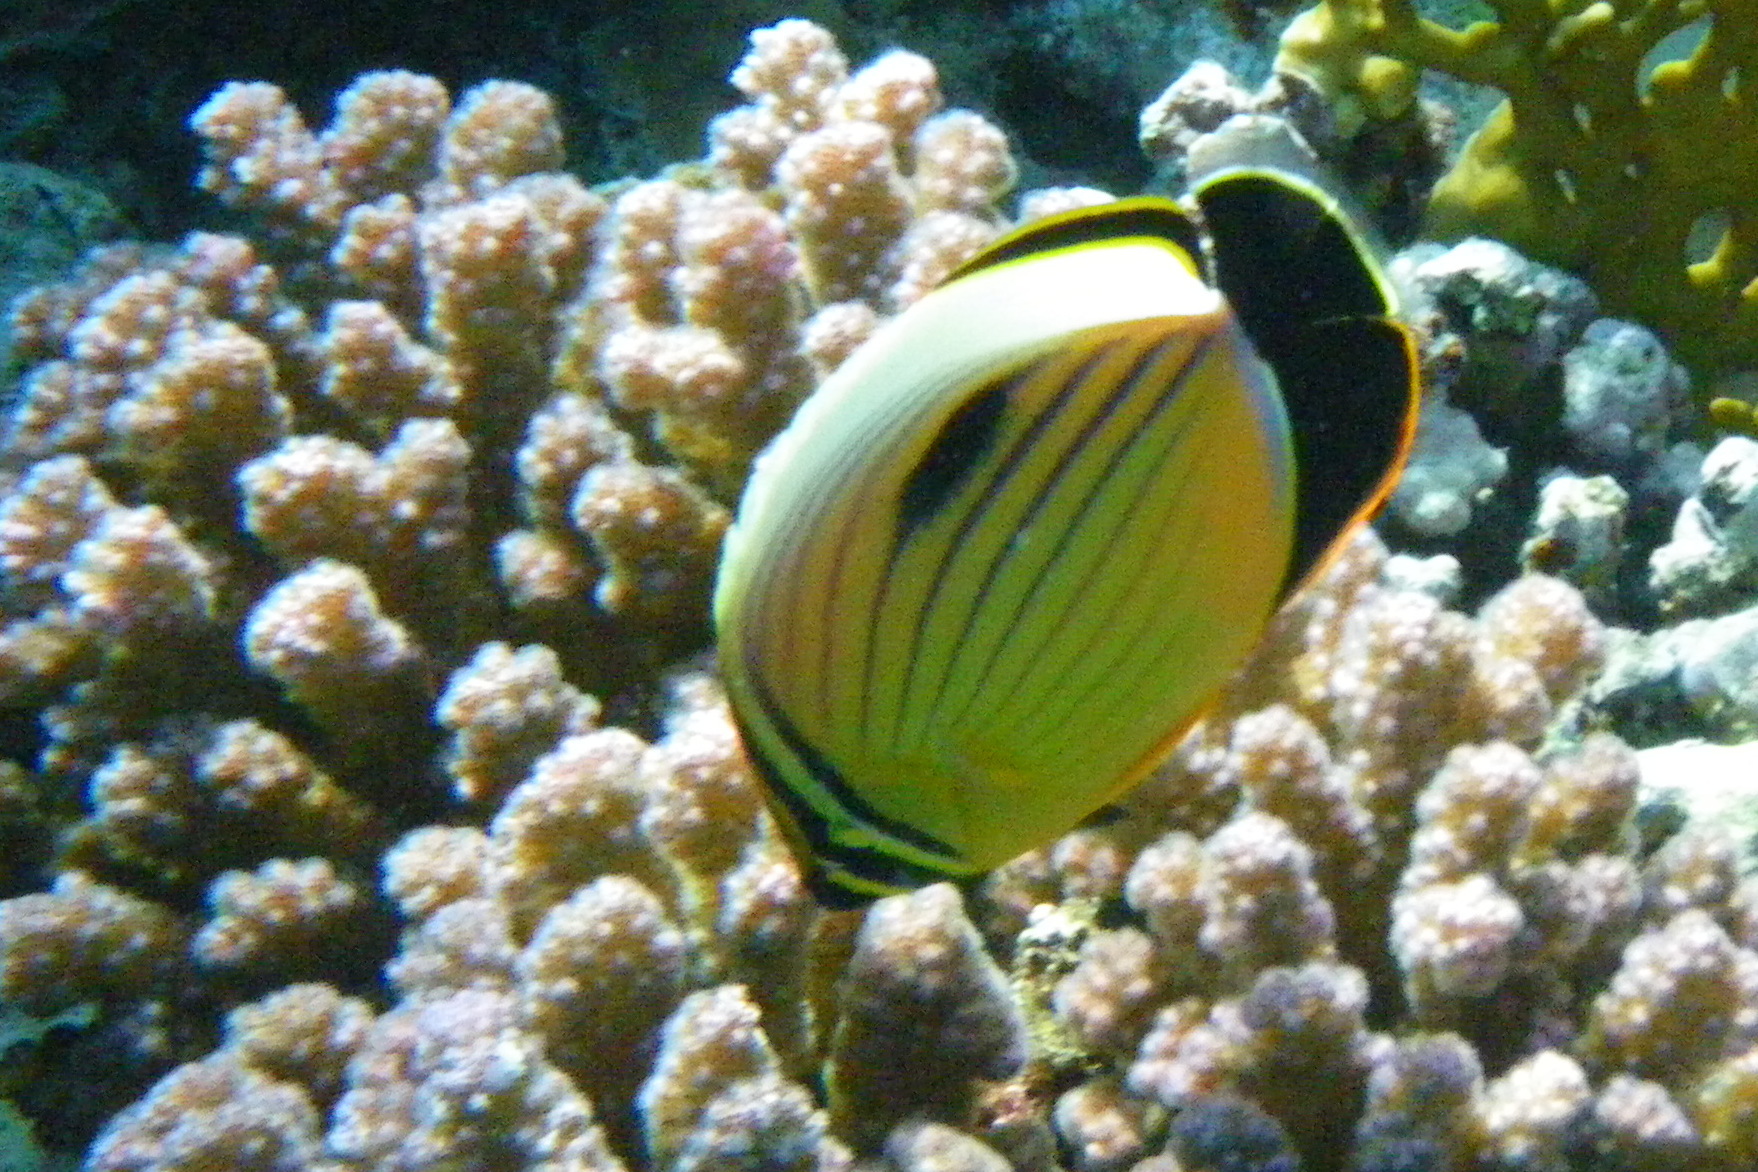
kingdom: Animalia
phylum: Chordata
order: Perciformes
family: Chaetodontidae
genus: Chaetodon
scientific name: Chaetodon austriacus
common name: Exquisite butterflyfish
